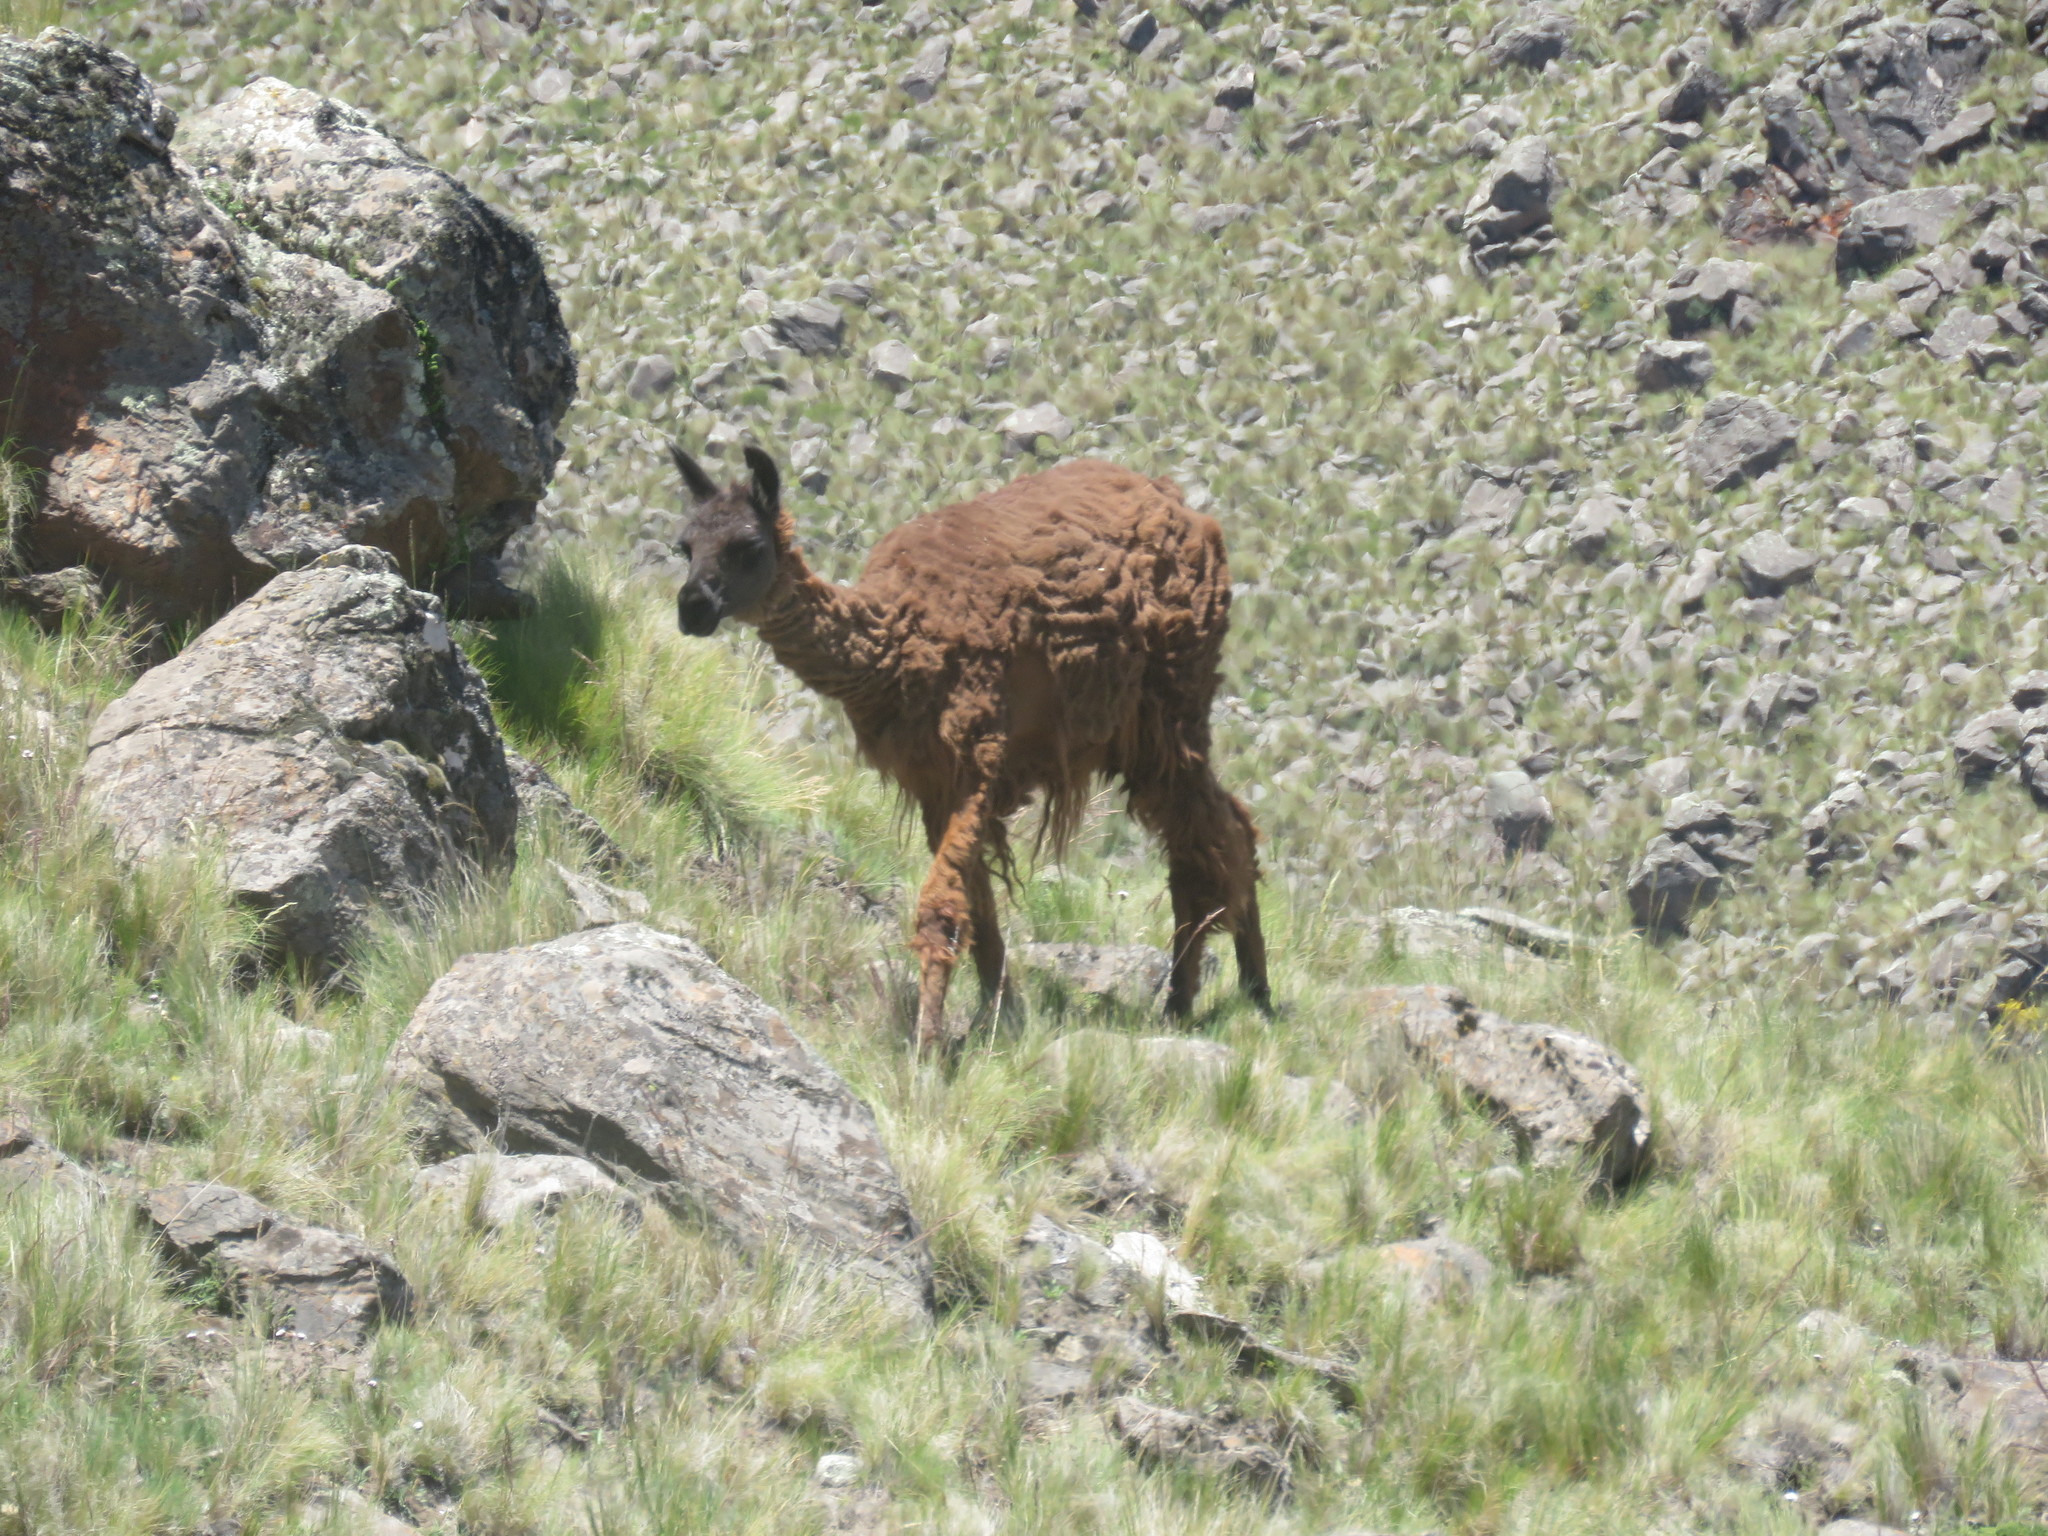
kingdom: Animalia
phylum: Chordata
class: Mammalia
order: Artiodactyla
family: Camelidae
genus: Lama
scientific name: Lama glama
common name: Llama
